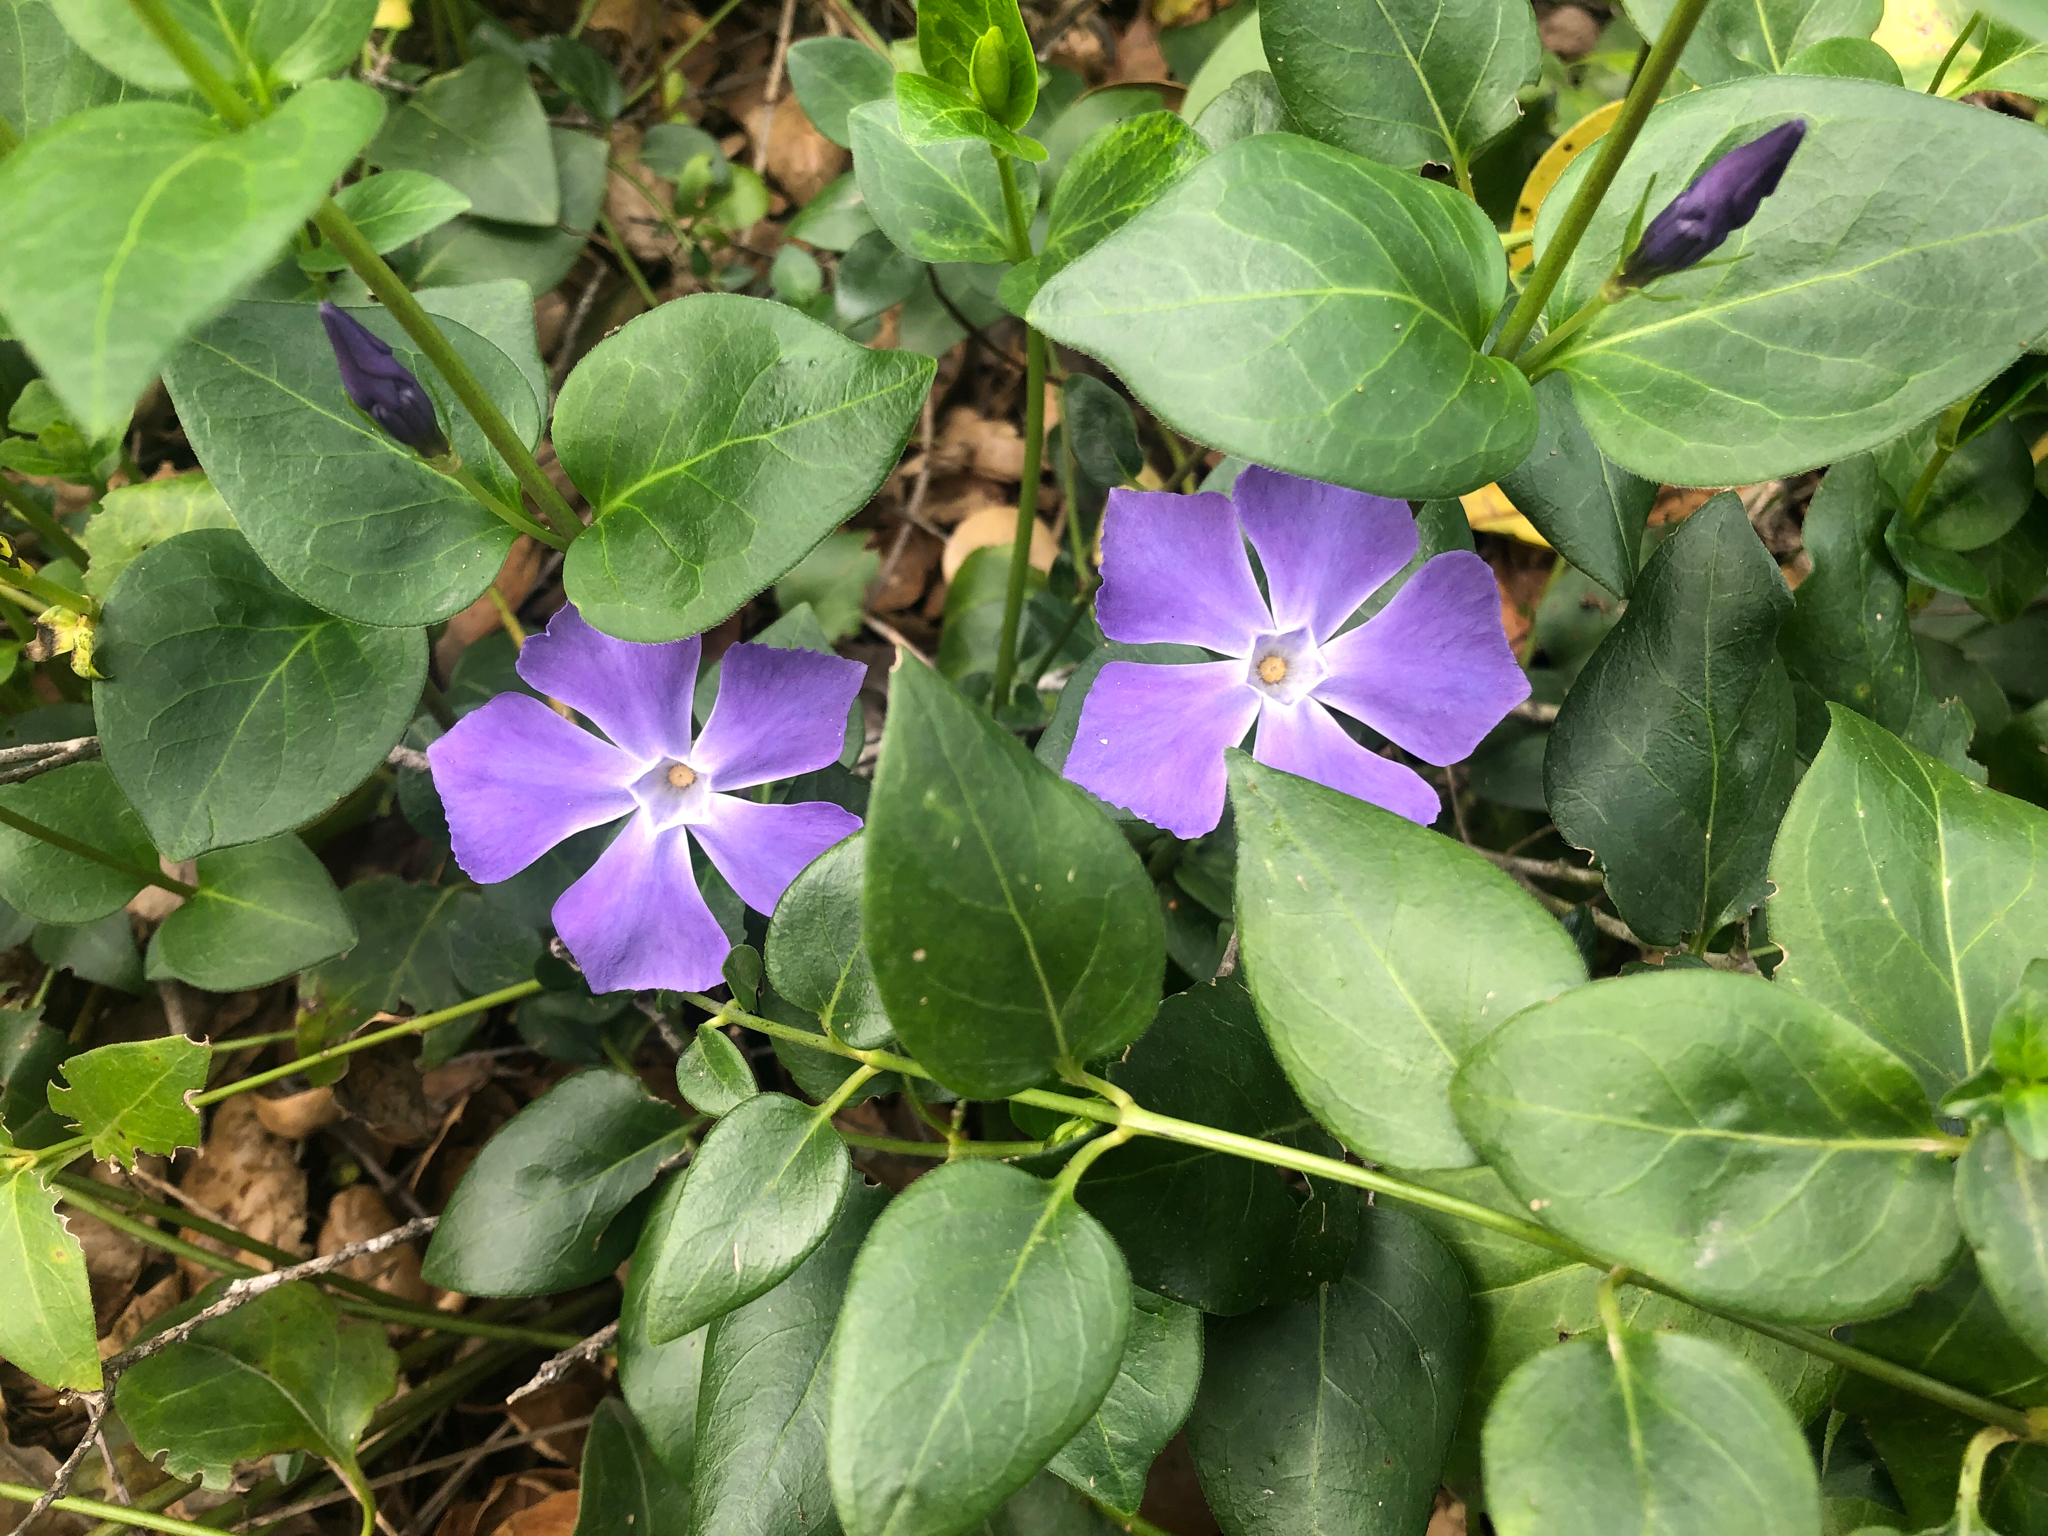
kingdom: Plantae
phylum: Tracheophyta
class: Magnoliopsida
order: Gentianales
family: Apocynaceae
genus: Vinca
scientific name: Vinca major
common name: Greater periwinkle
